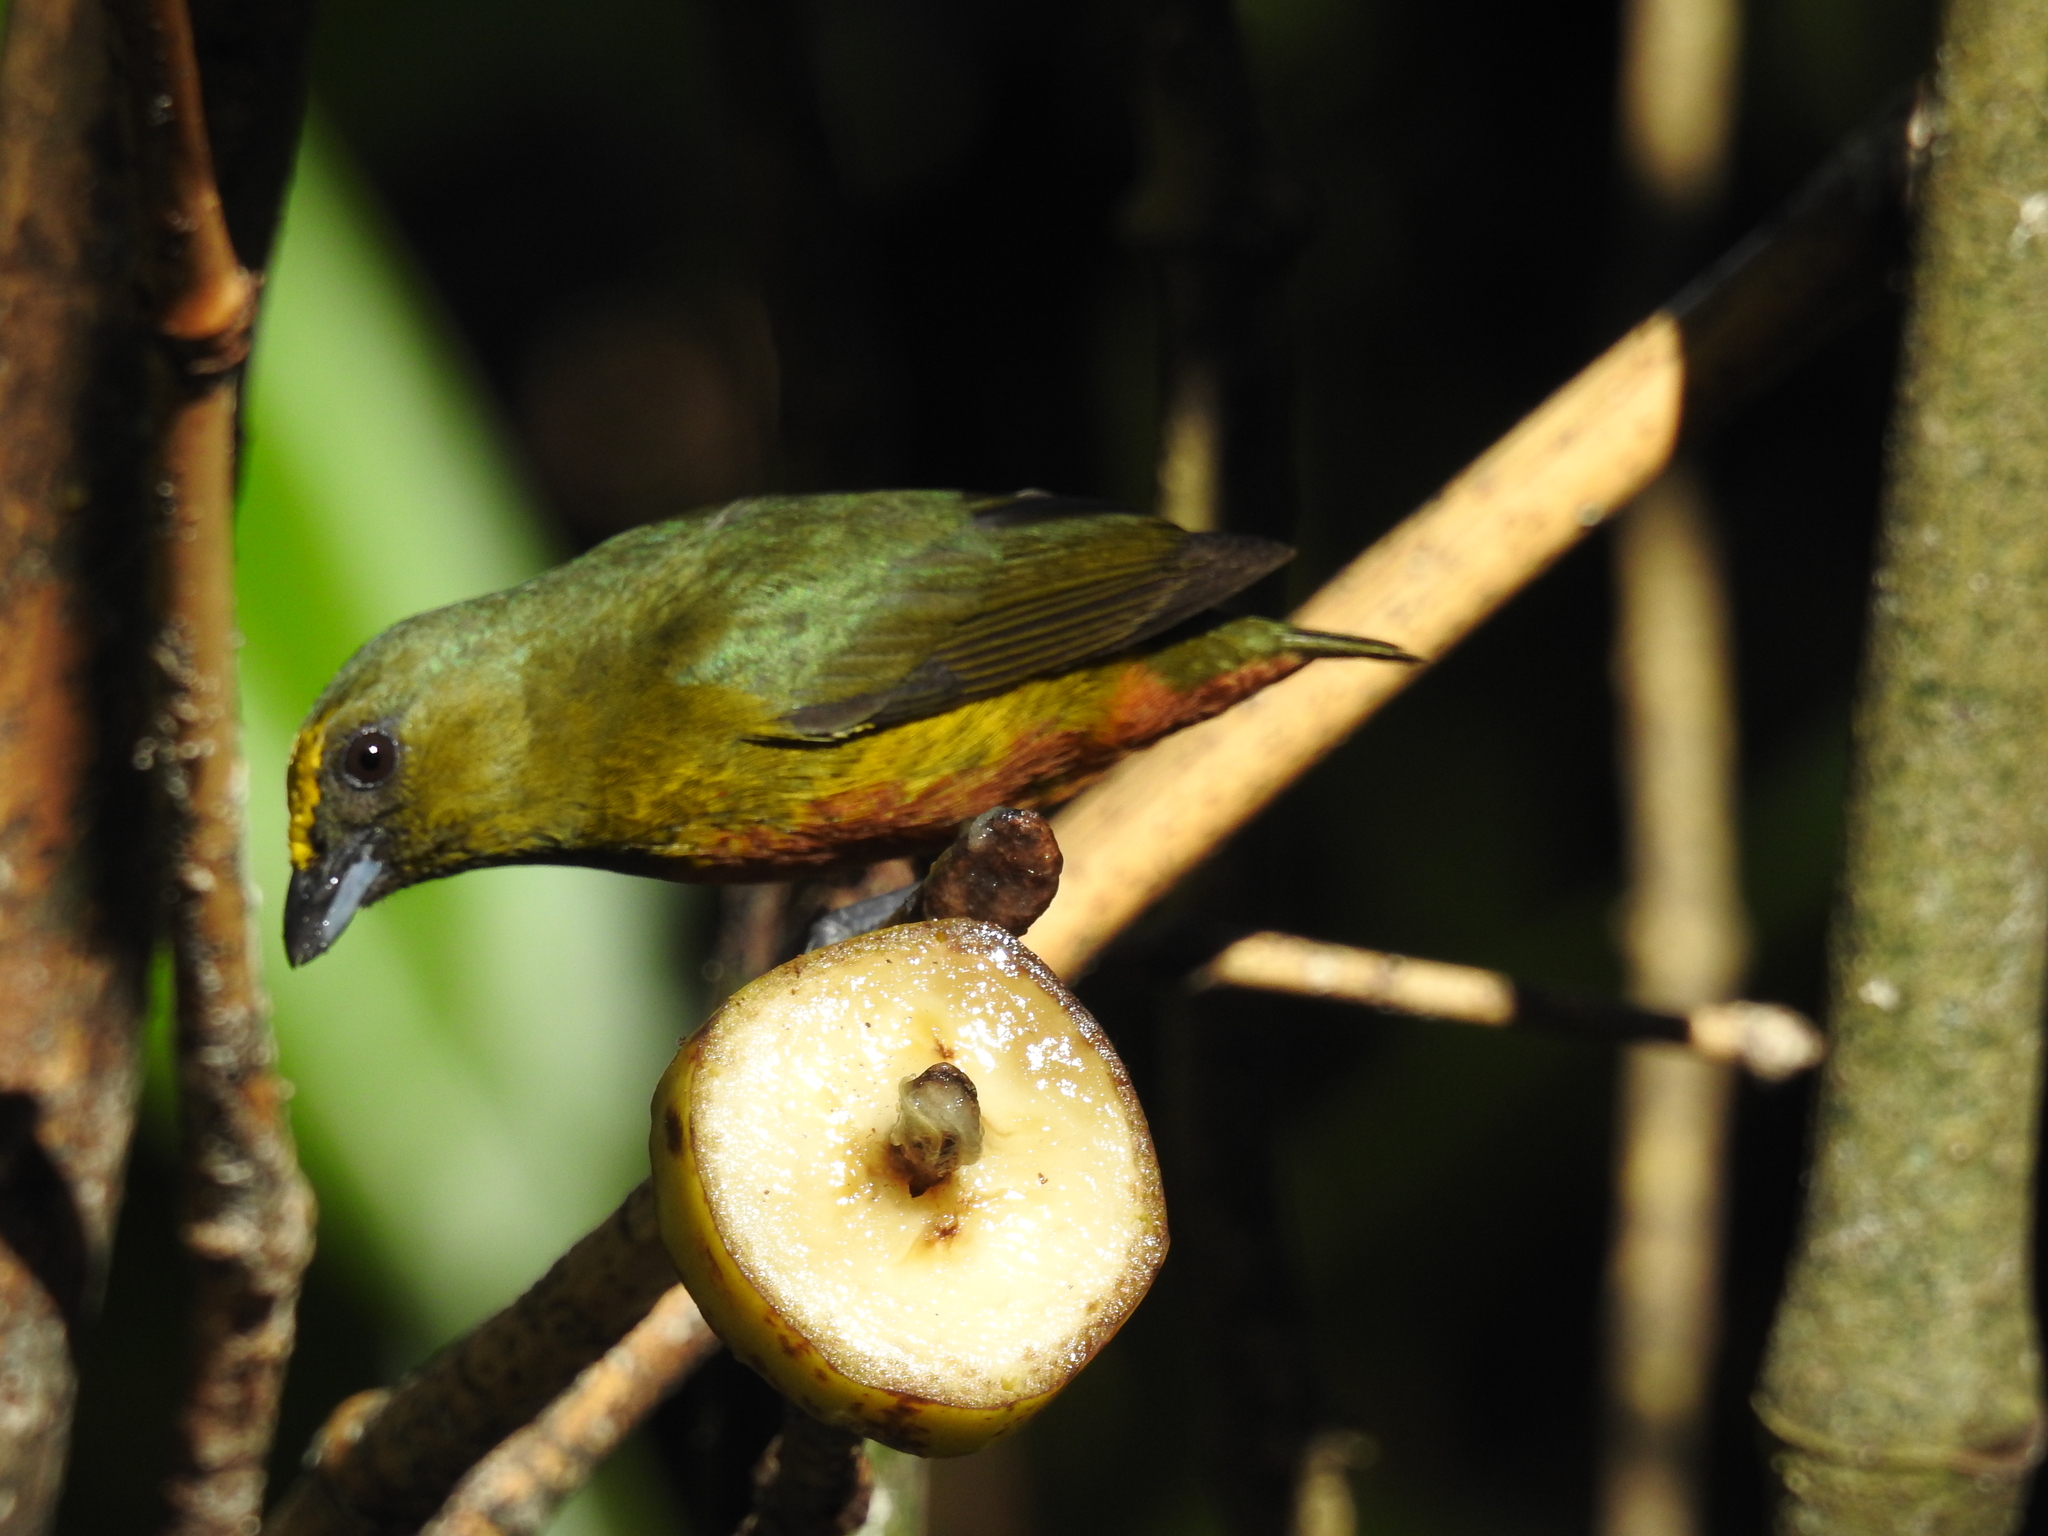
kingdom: Animalia
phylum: Chordata
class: Aves
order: Passeriformes
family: Fringillidae
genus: Euphonia
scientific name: Euphonia gouldi
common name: Olive-backed euphonia
